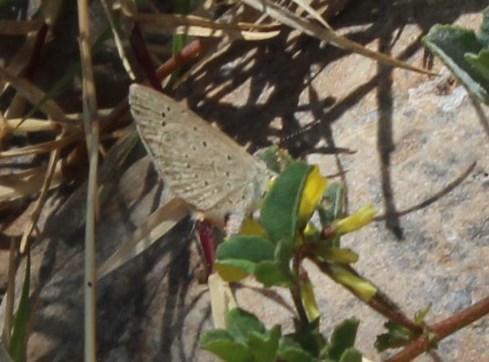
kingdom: Animalia
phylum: Arthropoda
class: Insecta
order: Lepidoptera
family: Lycaenidae
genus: Zizeeria
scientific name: Zizeeria knysna
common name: African grass blue
